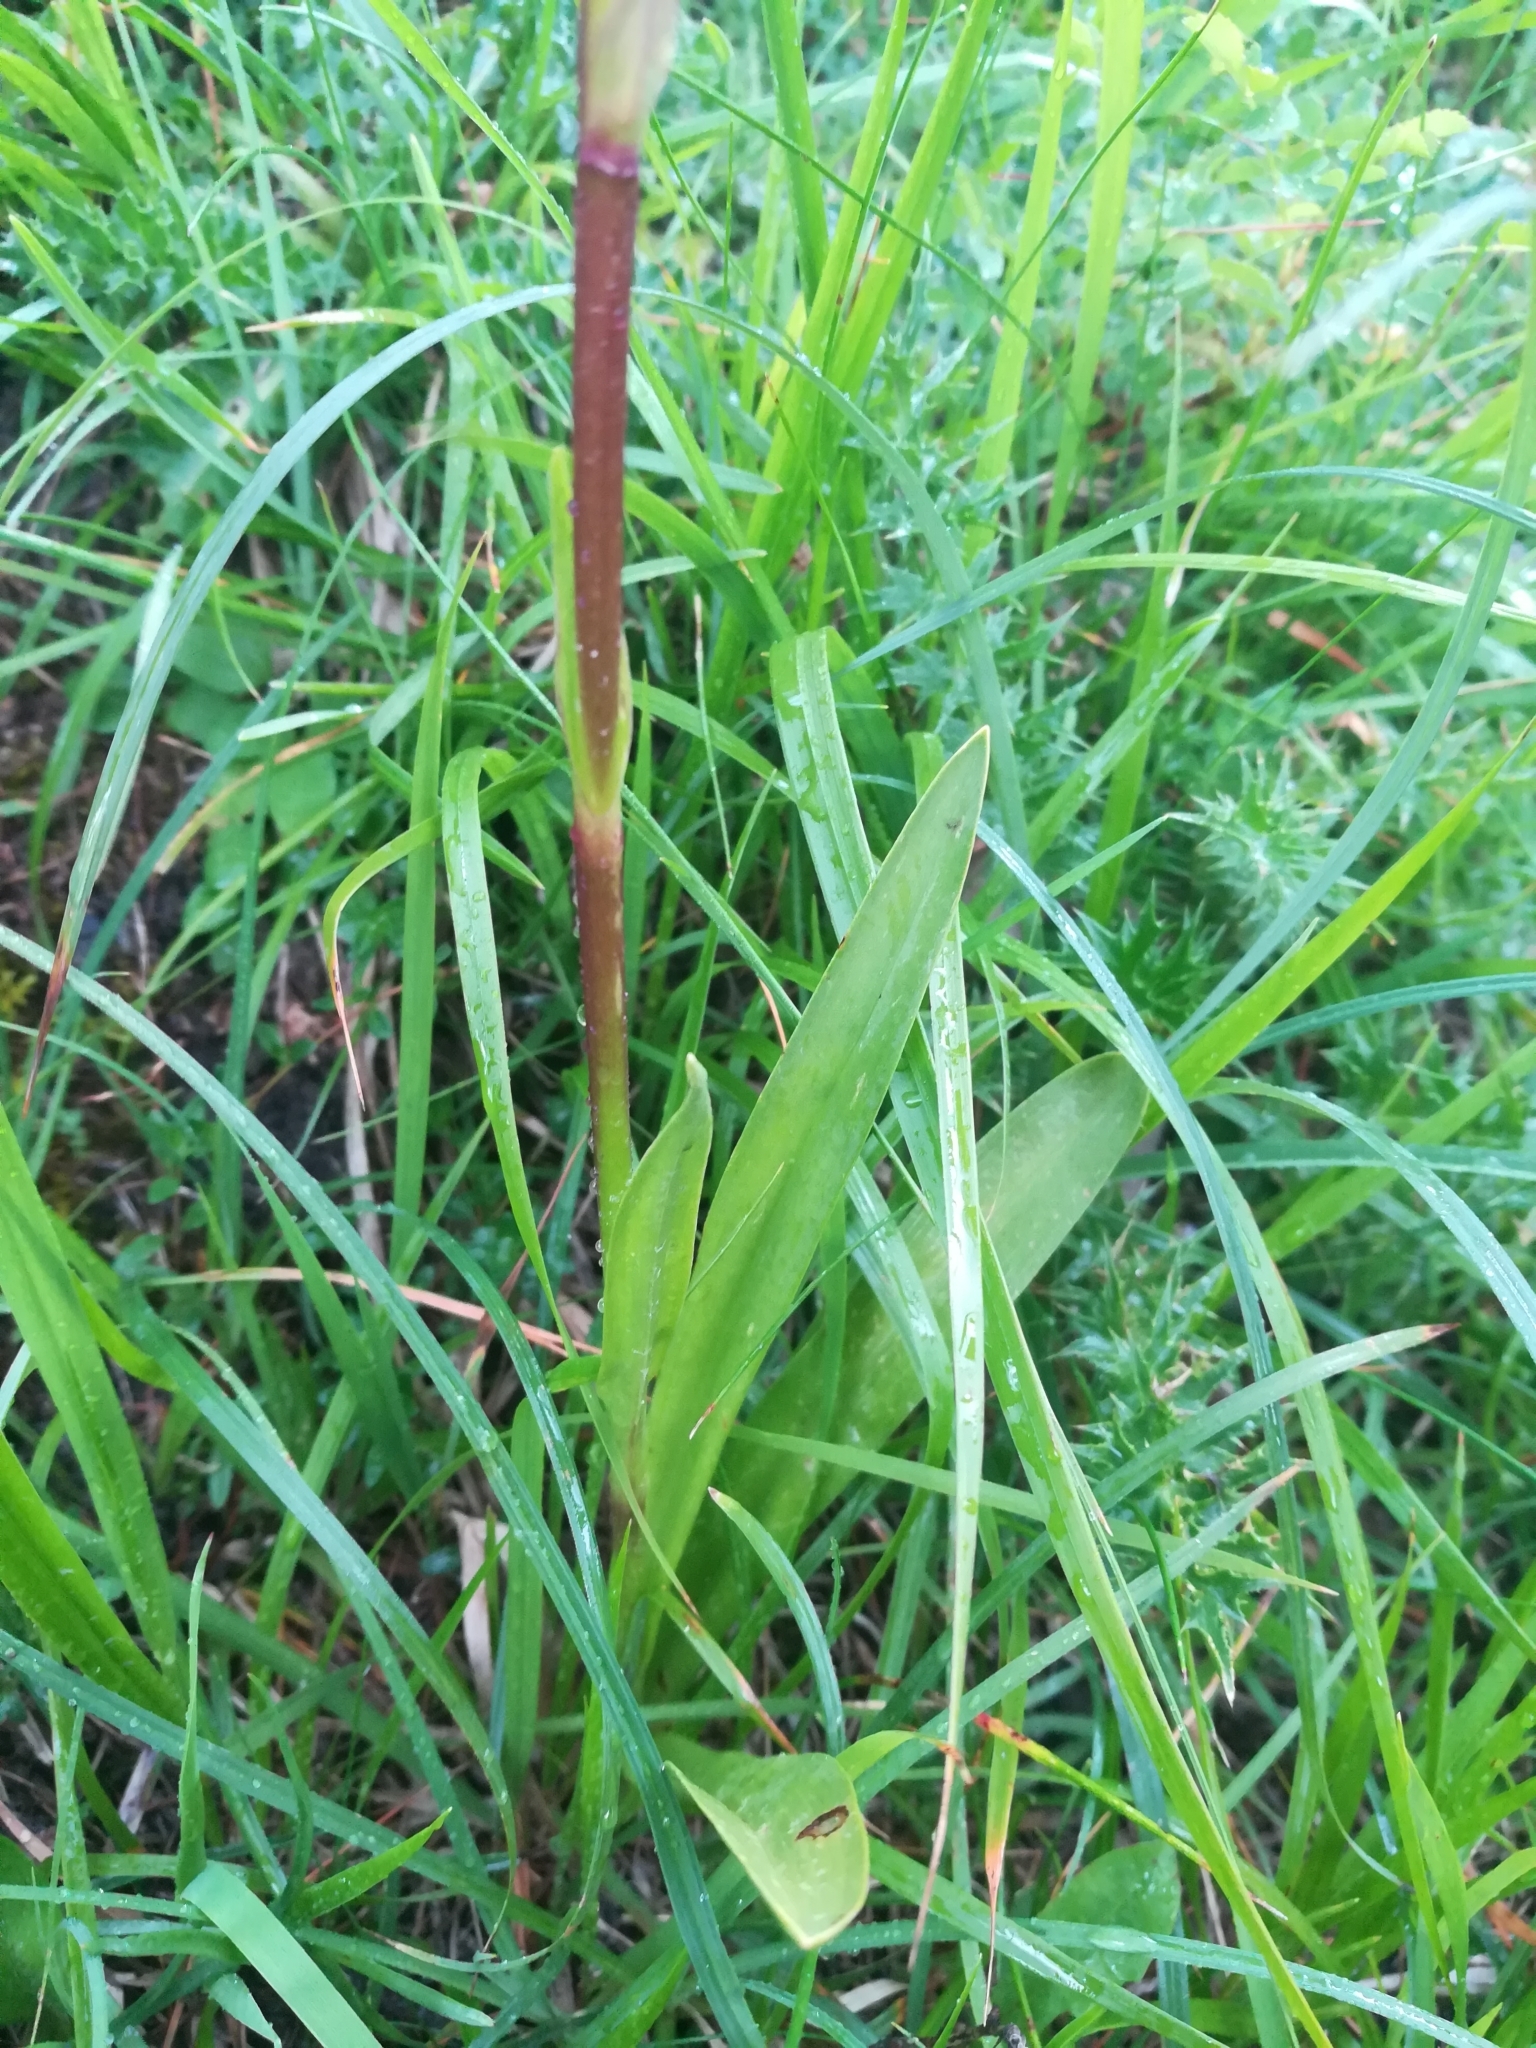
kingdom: Plantae
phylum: Tracheophyta
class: Liliopsida
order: Asparagales
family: Orchidaceae
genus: Gymnadenia
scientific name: Gymnadenia conopsea
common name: Fragrant orchid
